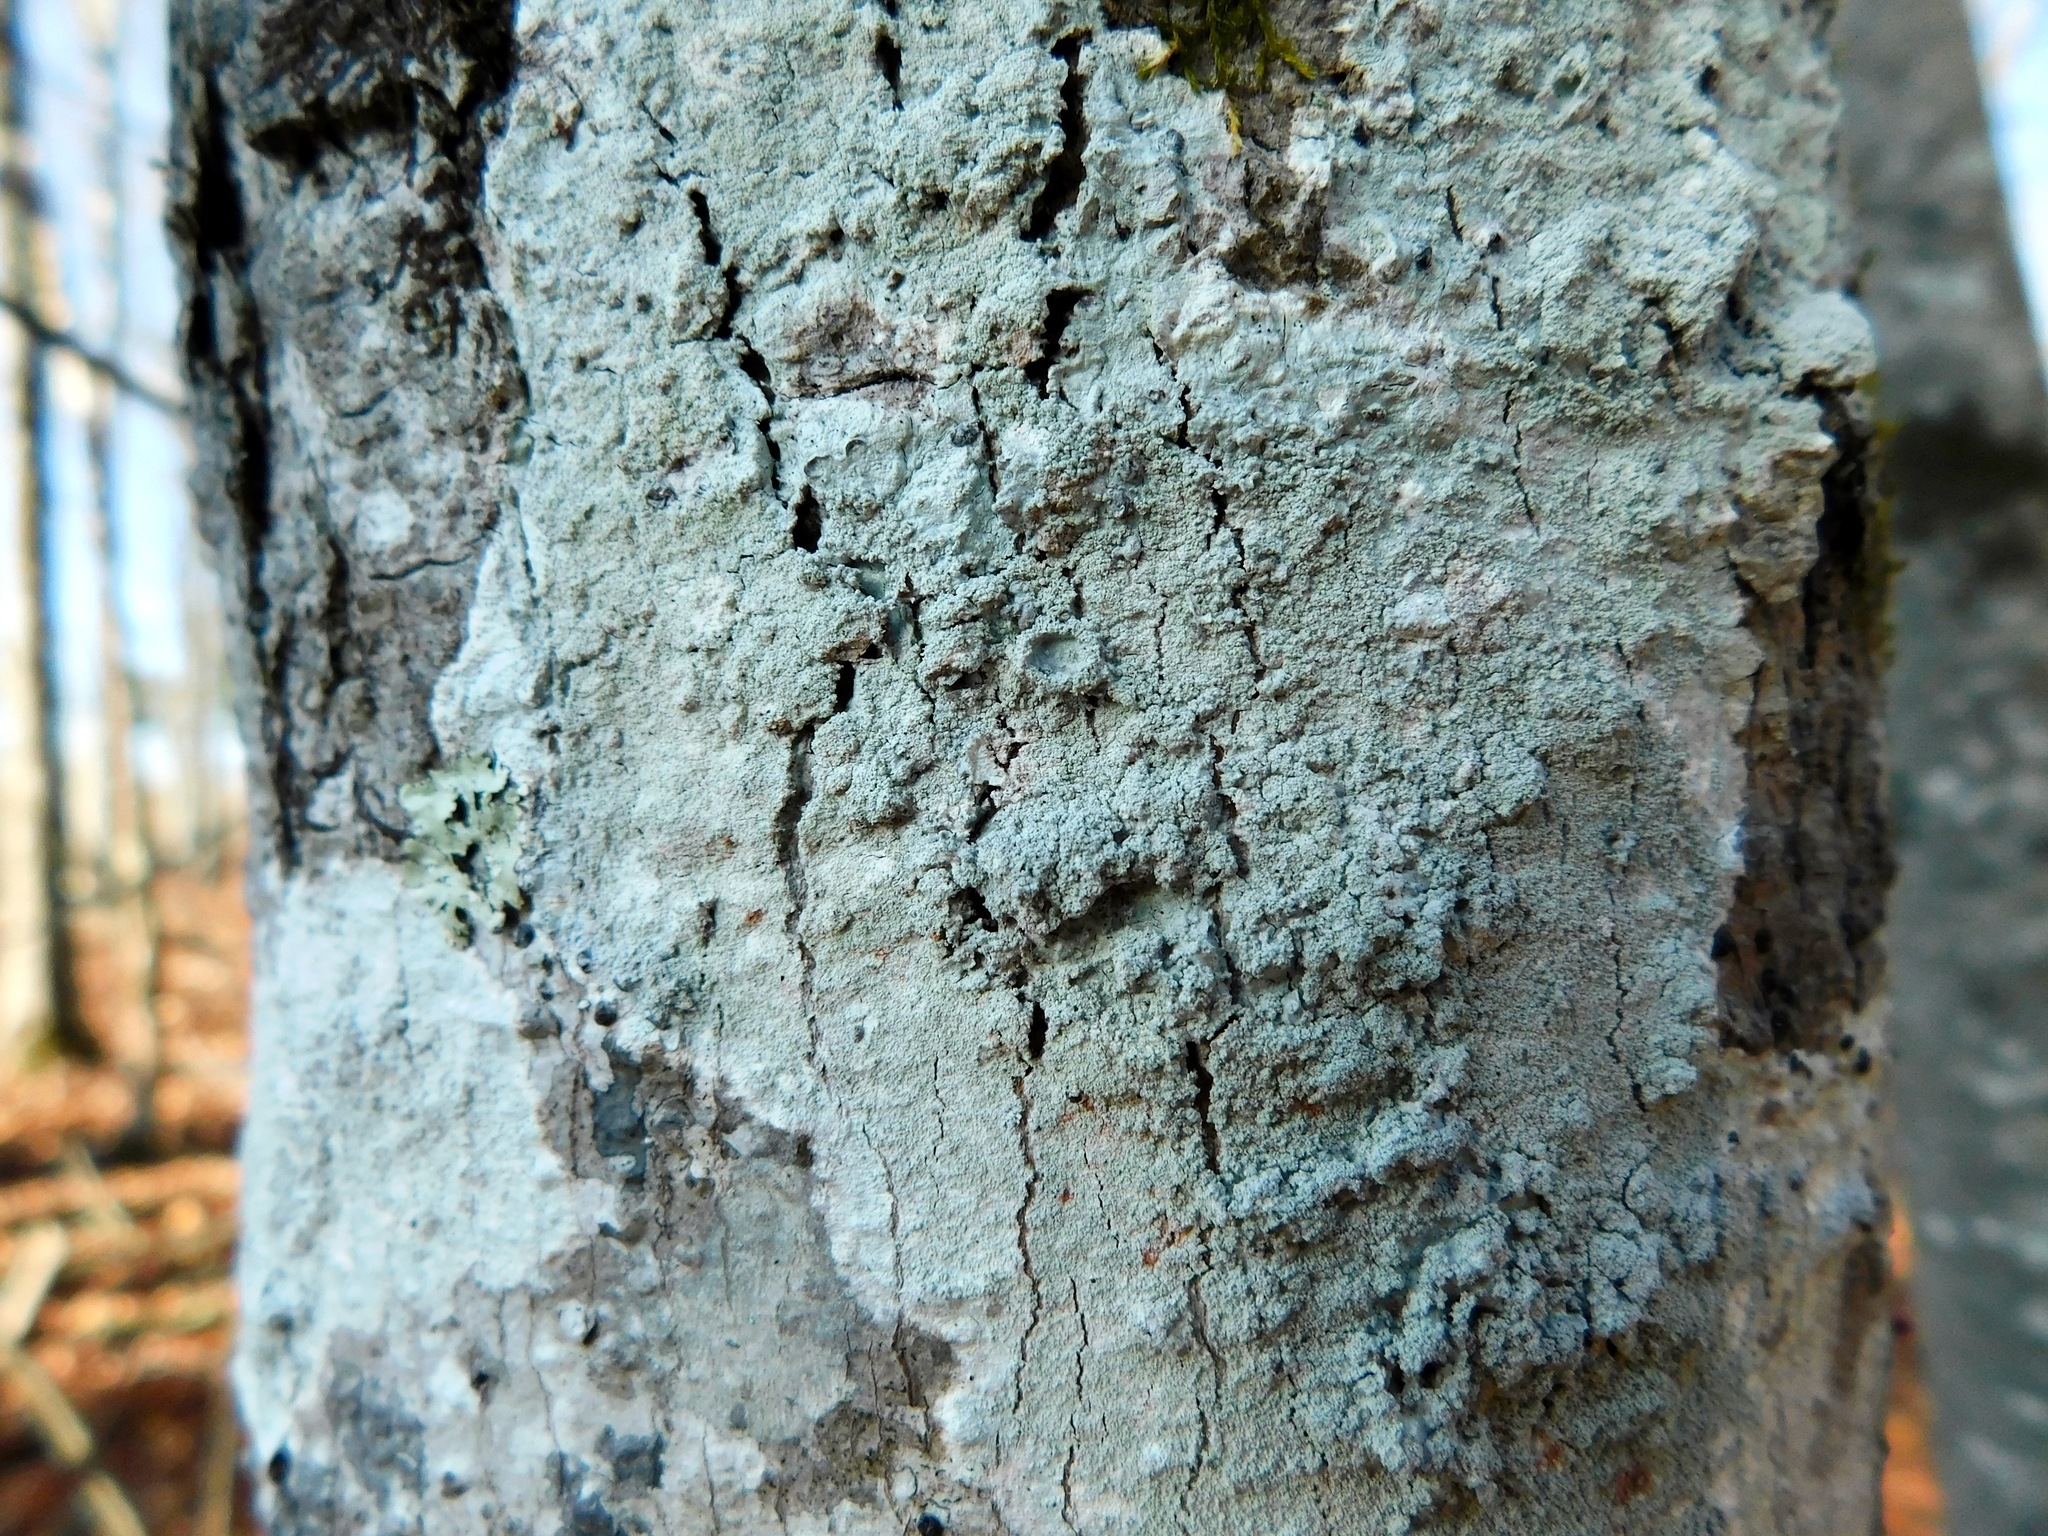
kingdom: Fungi
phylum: Ascomycota
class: Lecanoromycetes
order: Ostropales
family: Phlyctidaceae
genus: Phlyctis
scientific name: Phlyctis boliviensis
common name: Bark whitewash
